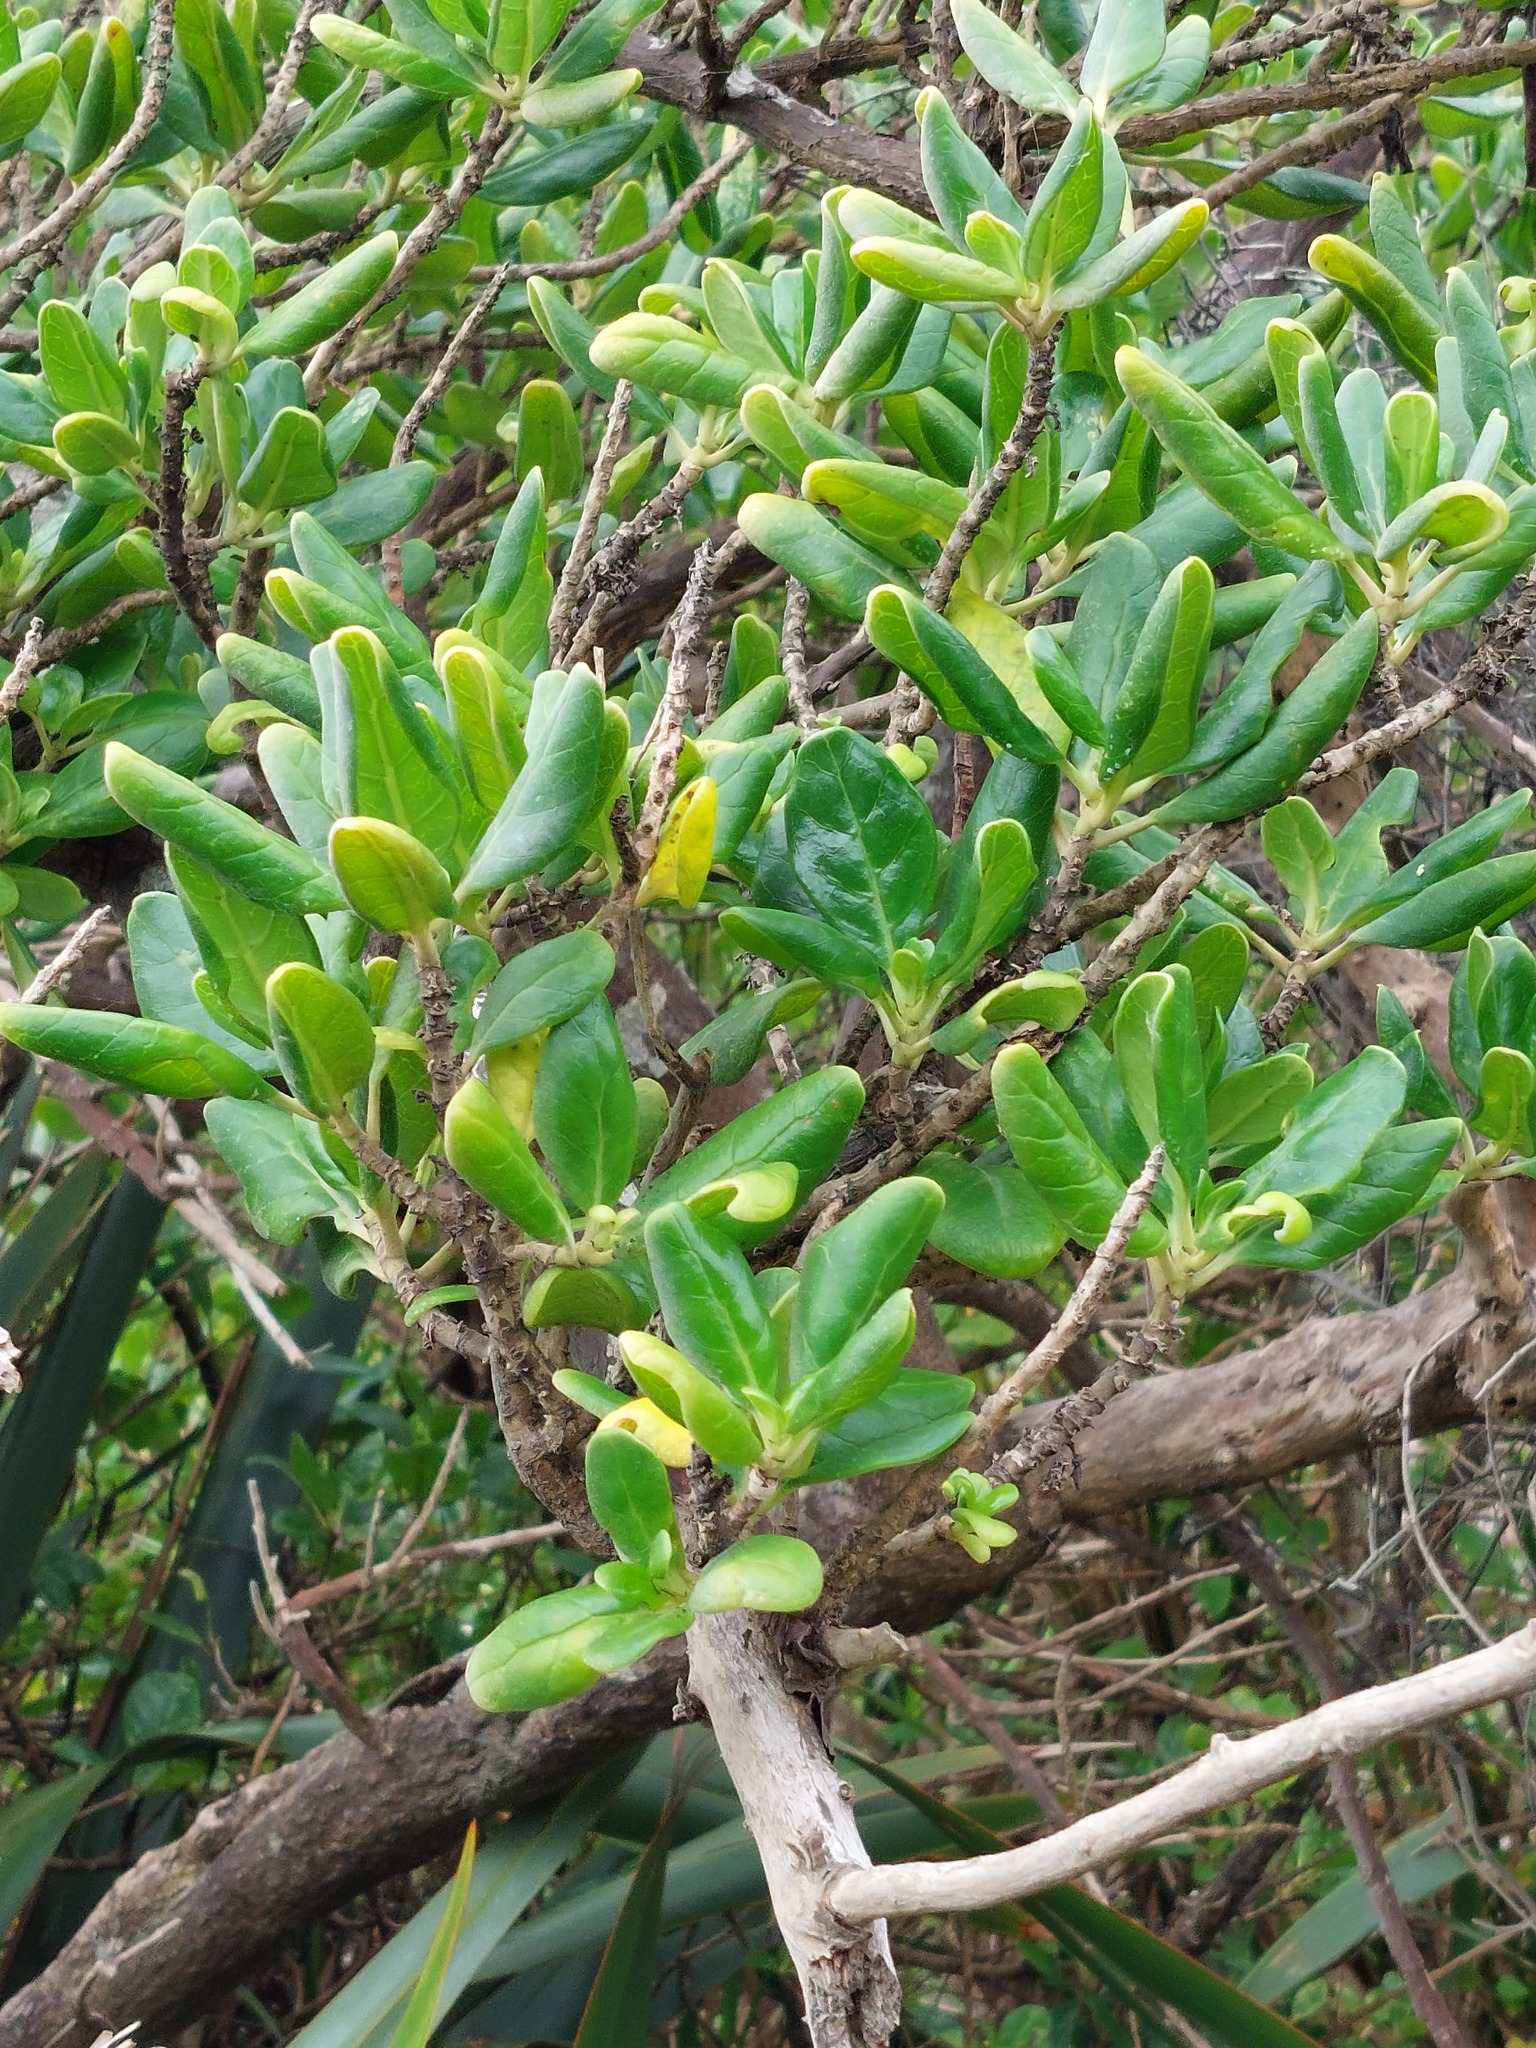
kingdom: Plantae
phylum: Tracheophyta
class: Magnoliopsida
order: Gentianales
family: Rubiaceae
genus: Coprosma
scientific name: Coprosma repens
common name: Tree bedstraw
